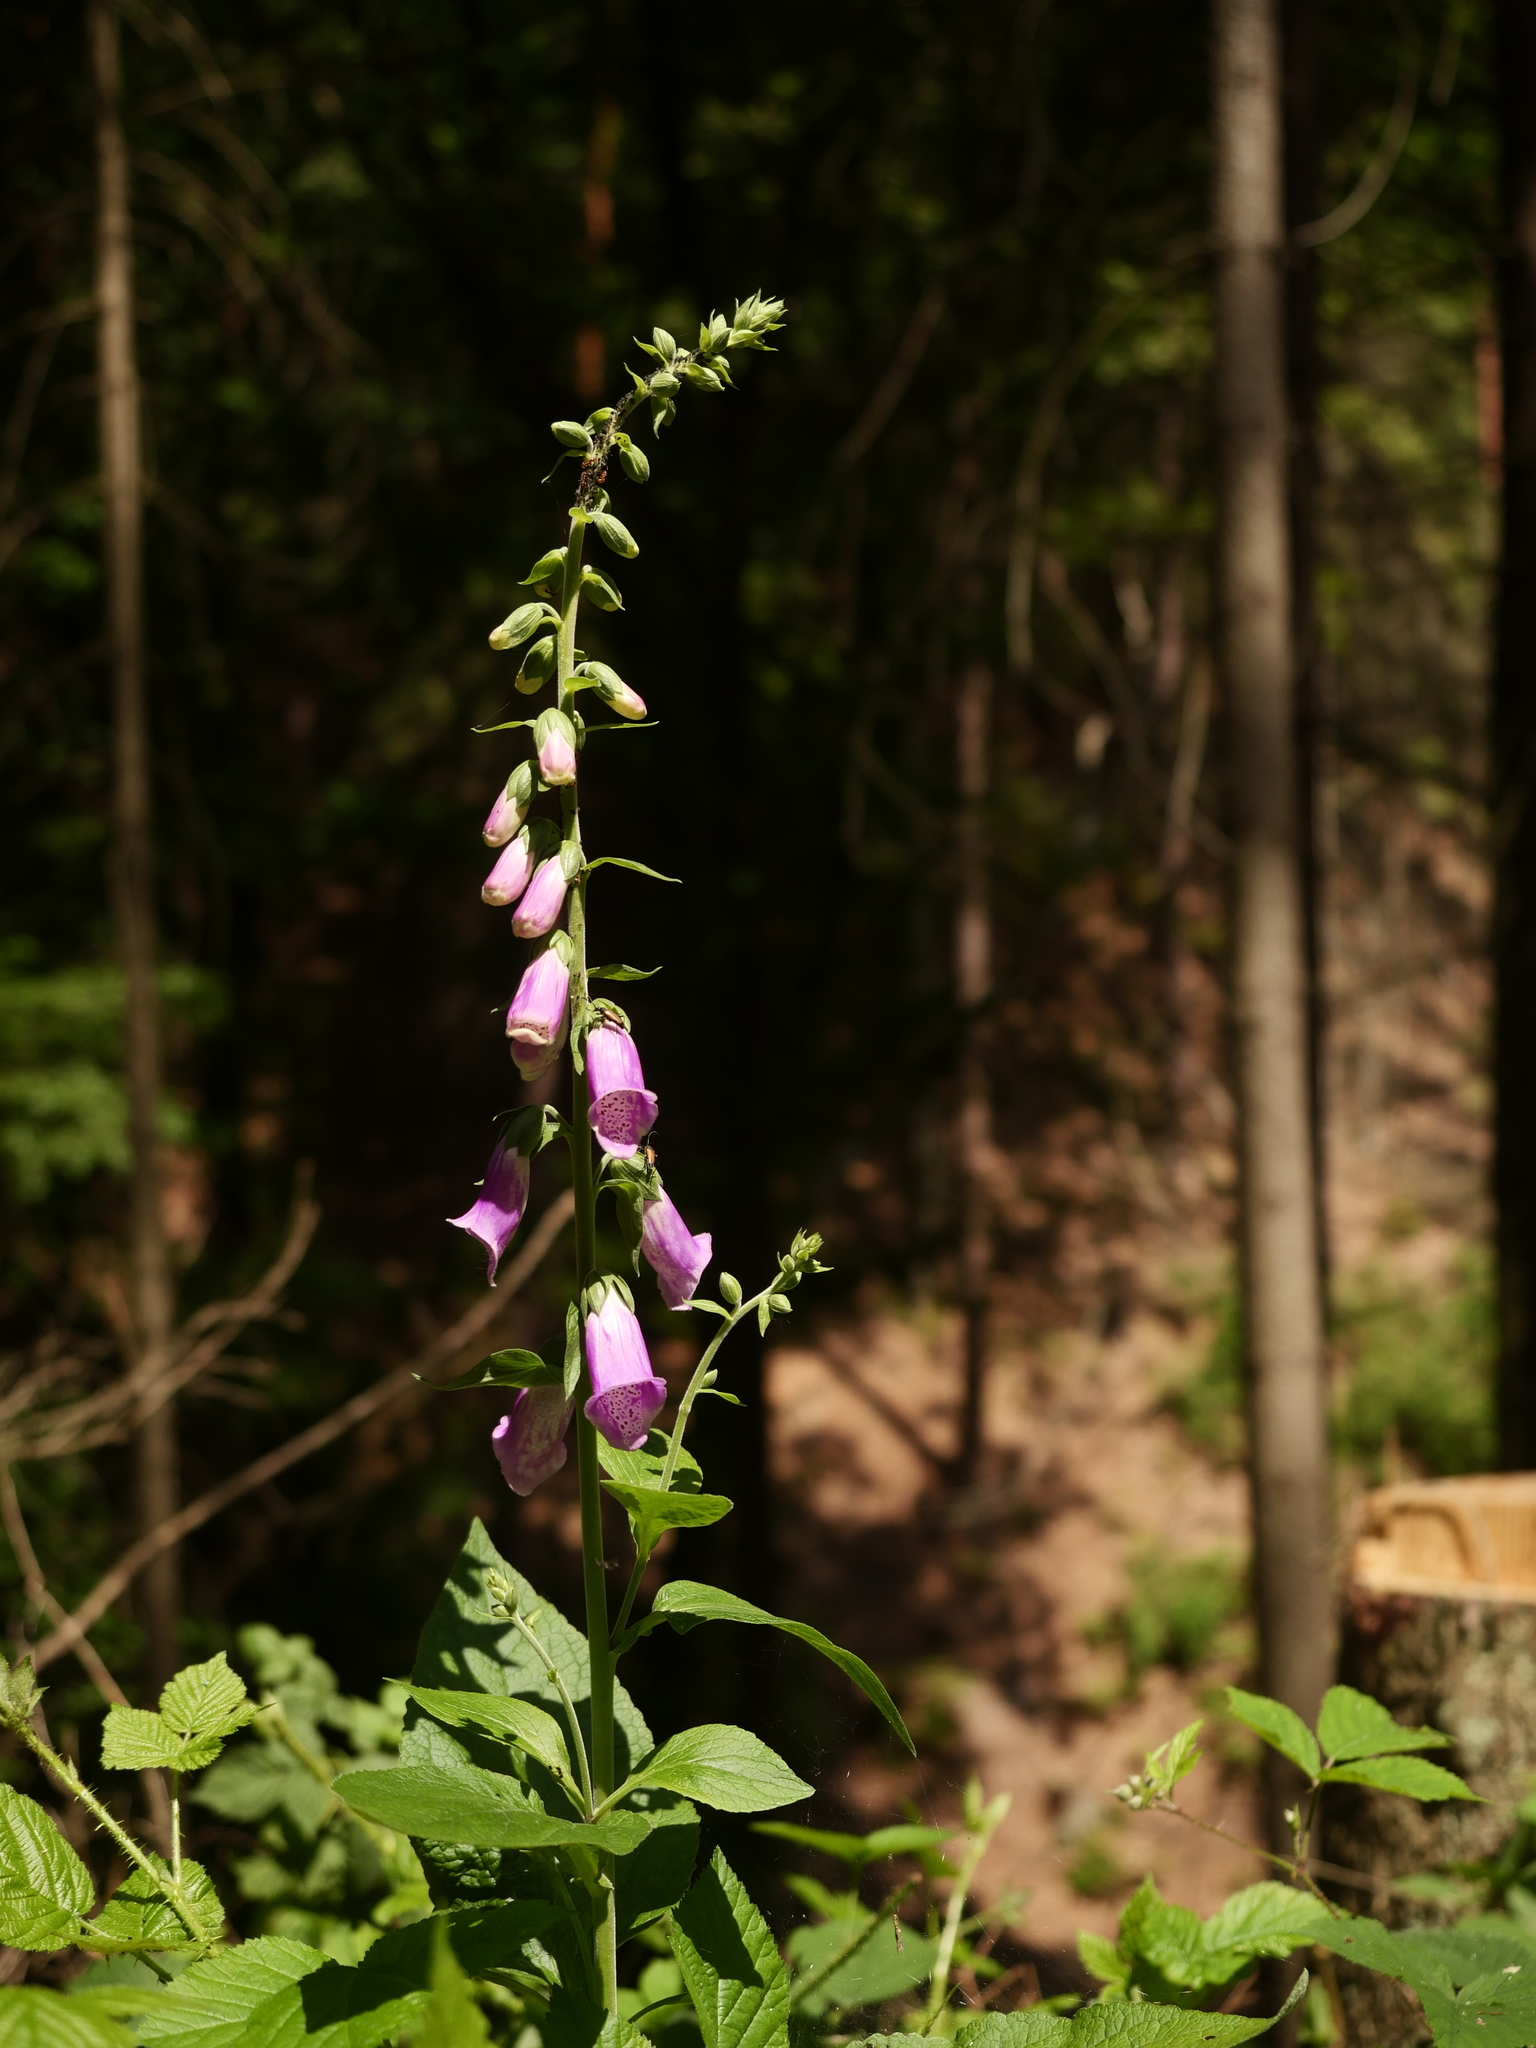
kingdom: Plantae
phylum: Tracheophyta
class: Magnoliopsida
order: Lamiales
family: Plantaginaceae
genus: Digitalis
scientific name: Digitalis purpurea
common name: Foxglove
